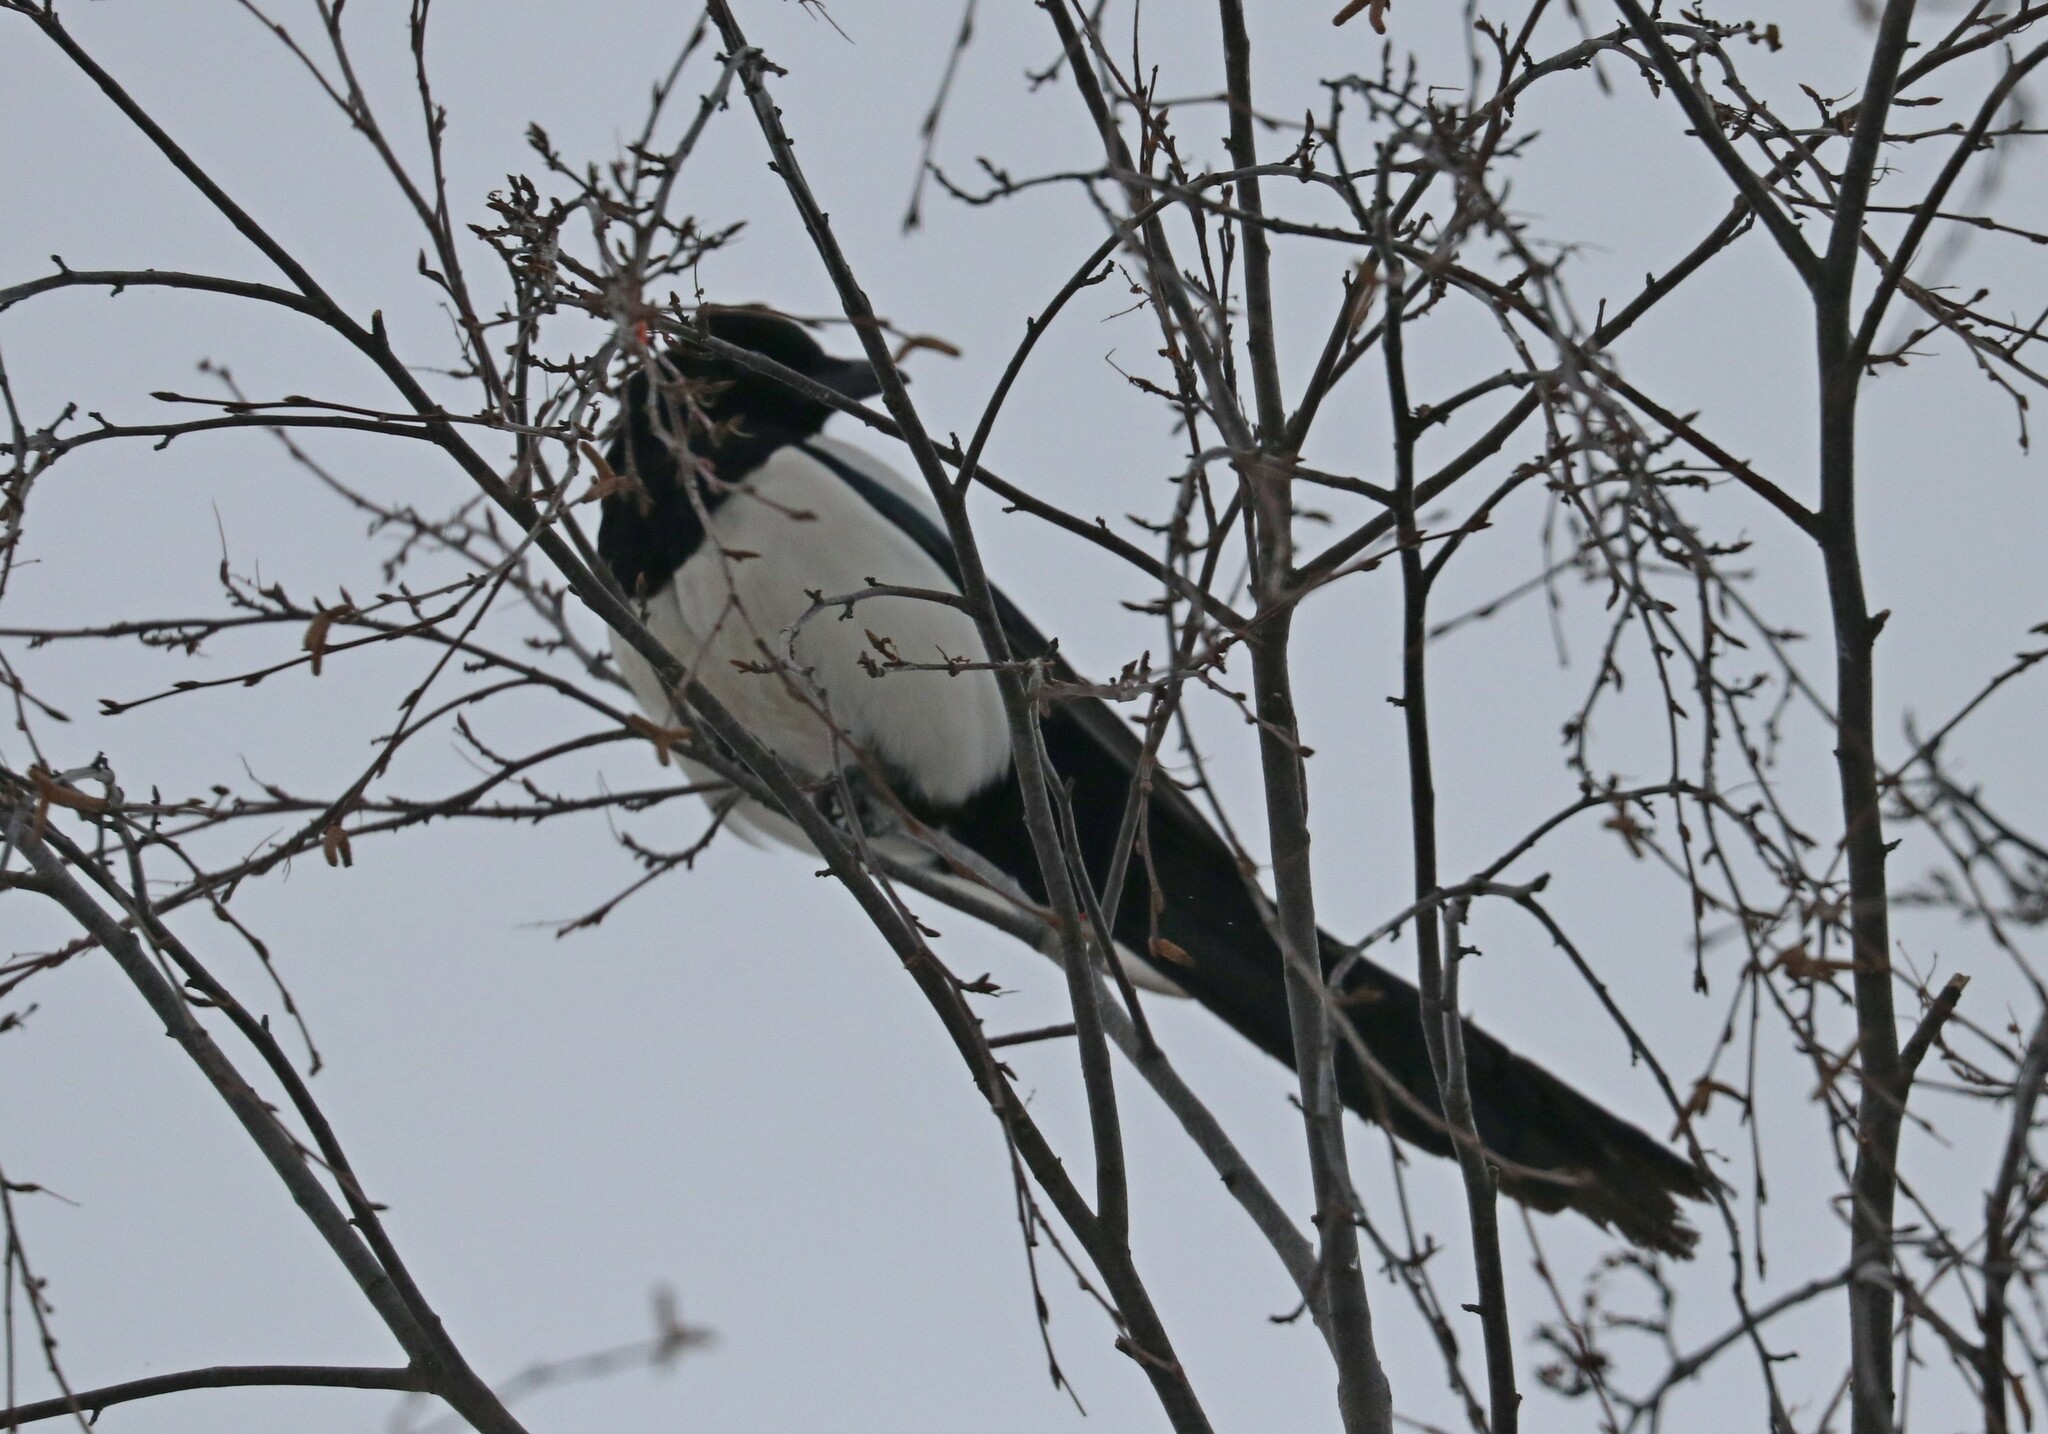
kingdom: Animalia
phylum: Chordata
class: Aves
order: Passeriformes
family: Corvidae
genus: Pica
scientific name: Pica pica
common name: Eurasian magpie
